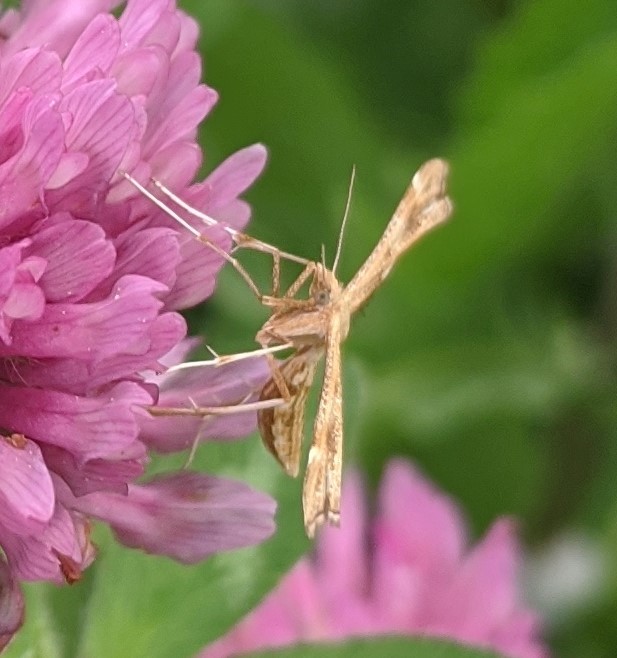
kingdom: Animalia
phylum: Arthropoda
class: Insecta
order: Lepidoptera
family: Pterophoridae
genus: Gillmeria
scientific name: Gillmeria pallidactyla
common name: Yarrow plume
